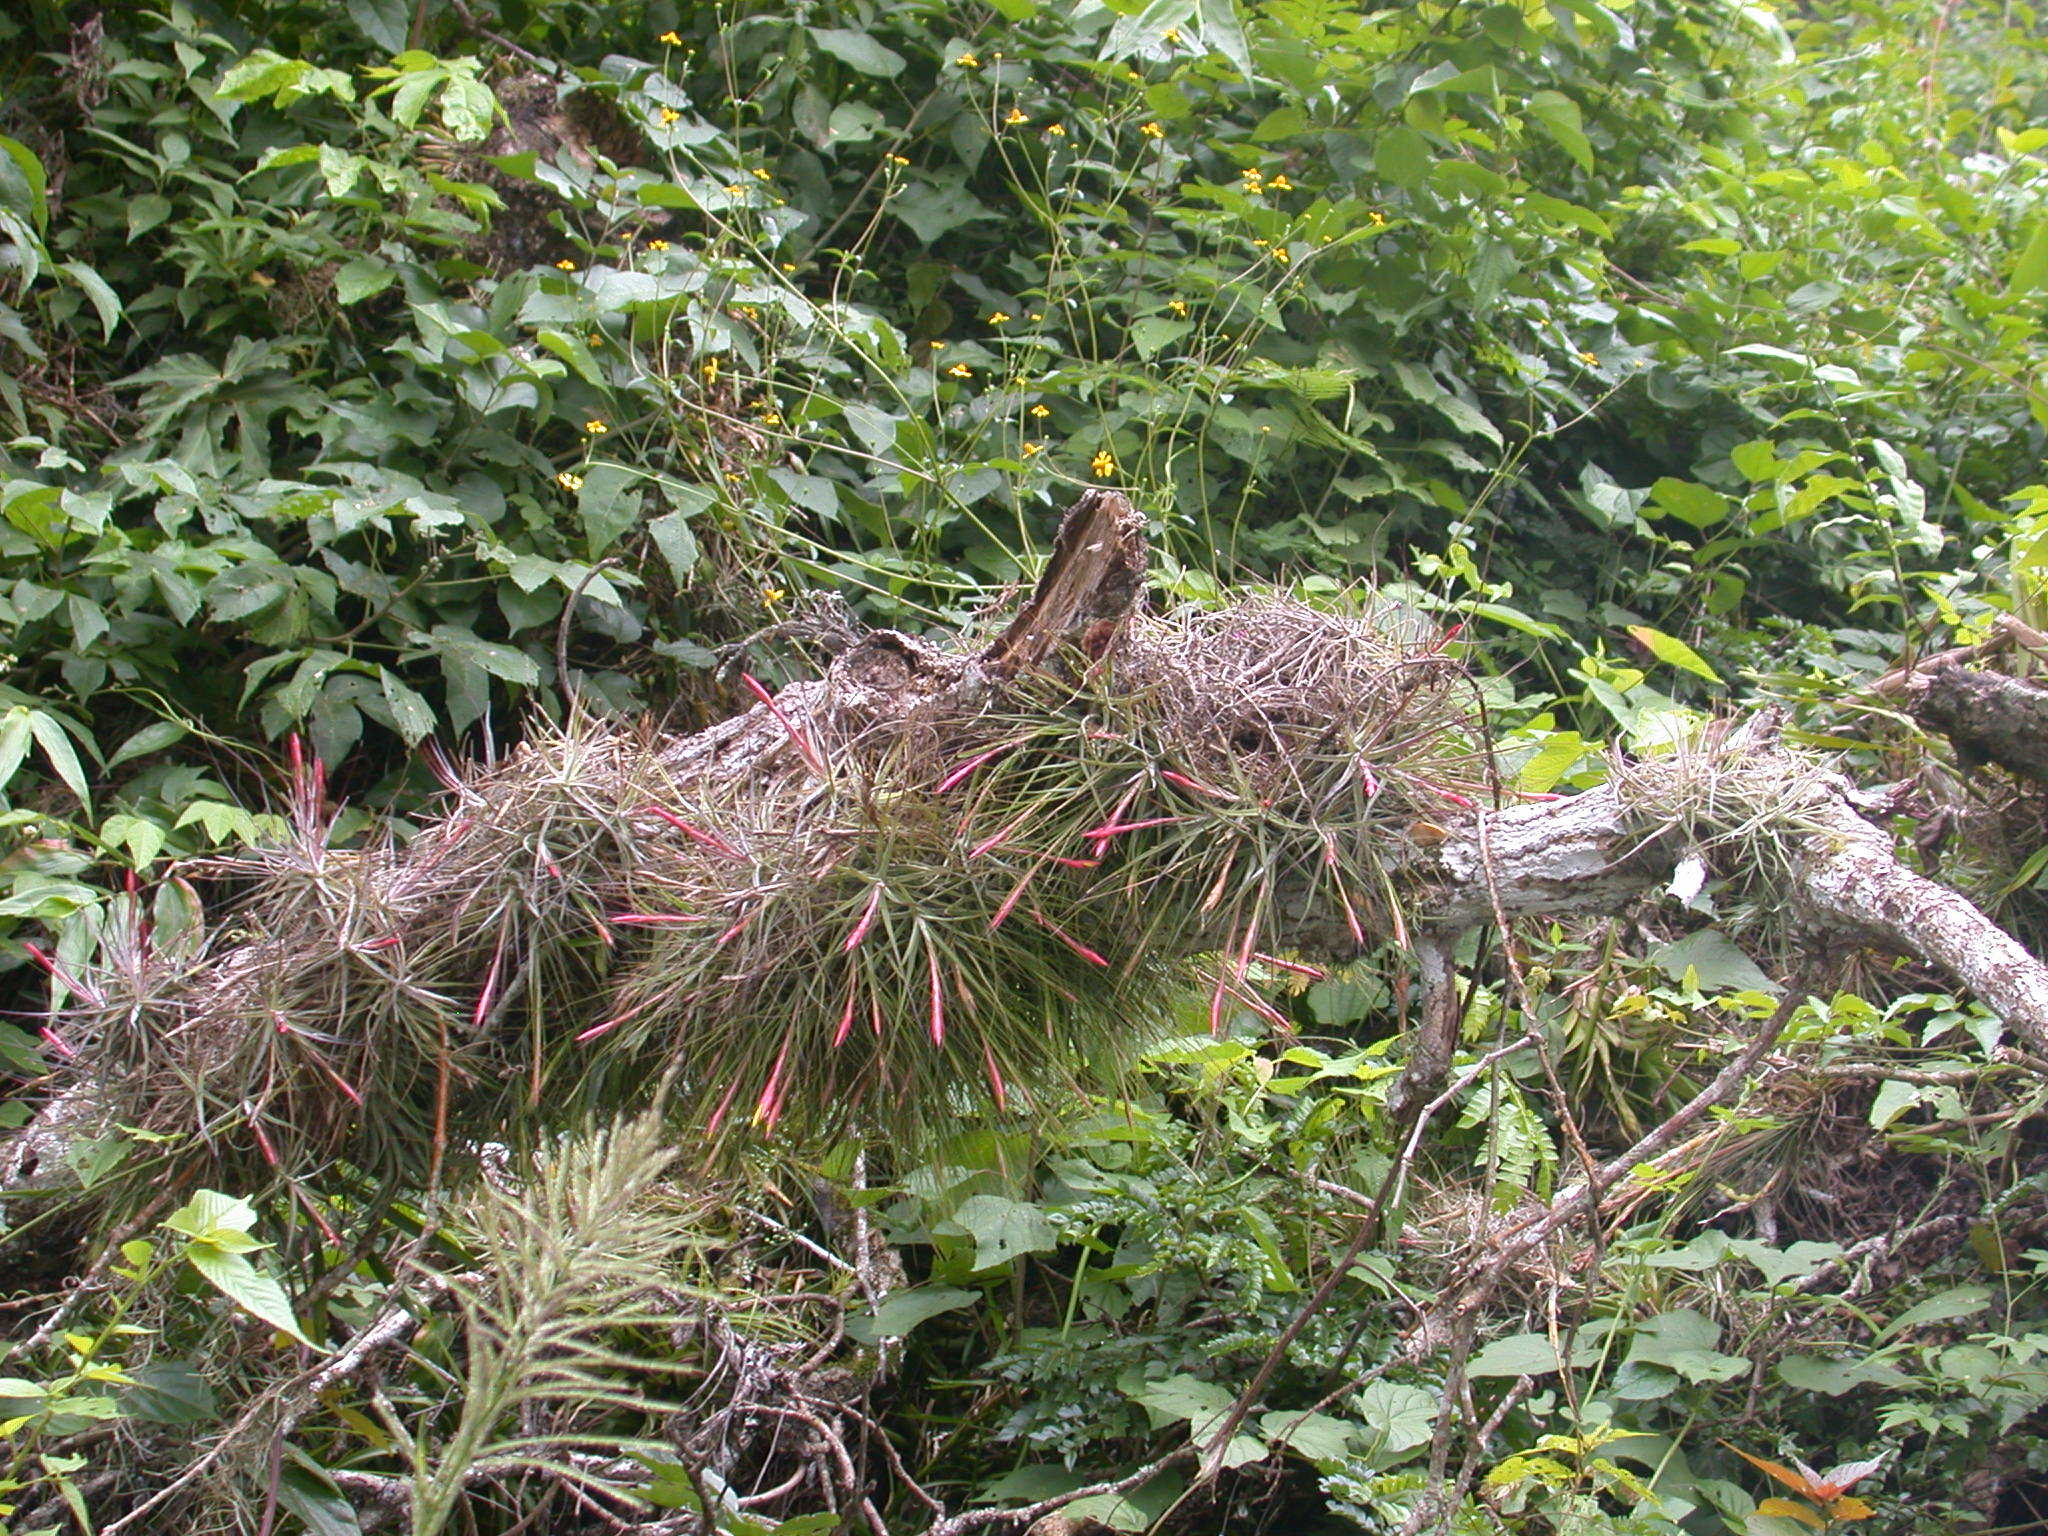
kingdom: Plantae
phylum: Tracheophyta
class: Liliopsida
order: Poales
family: Bromeliaceae
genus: Tillandsia
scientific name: Tillandsia schiedeana
